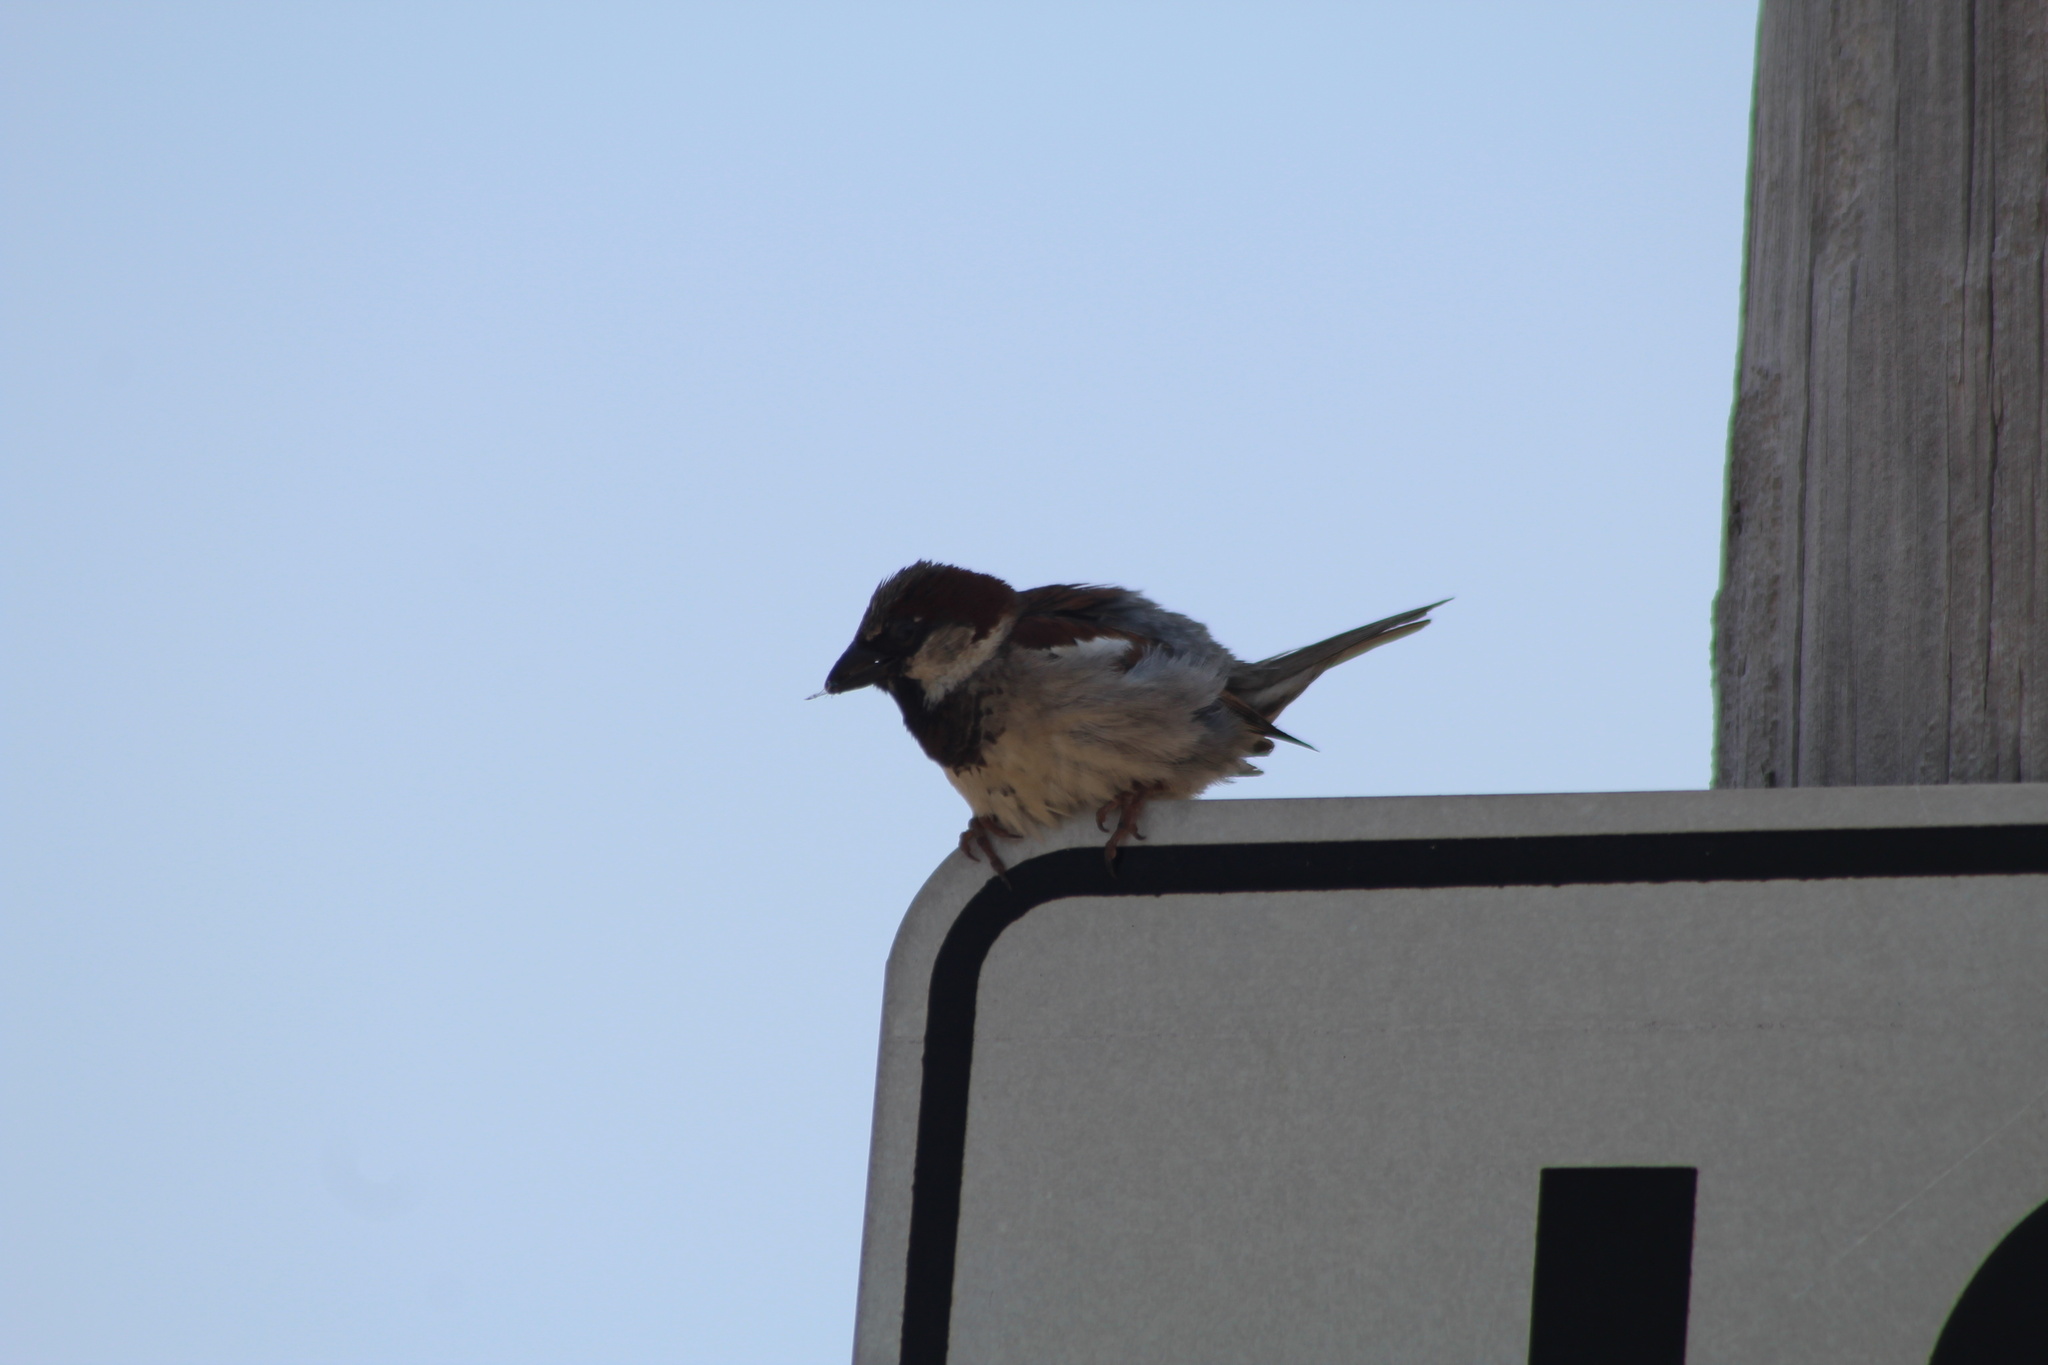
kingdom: Animalia
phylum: Chordata
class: Aves
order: Passeriformes
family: Passeridae
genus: Passer
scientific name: Passer domesticus
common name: House sparrow
